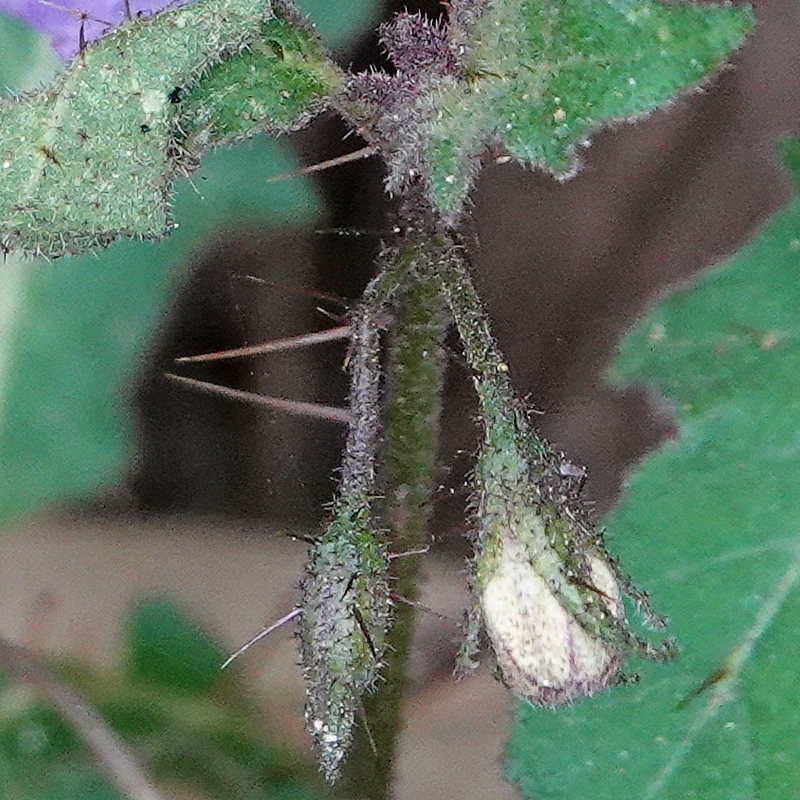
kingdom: Plantae
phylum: Tracheophyta
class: Magnoliopsida
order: Solanales
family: Solanaceae
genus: Solanum
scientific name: Solanum pungetium
